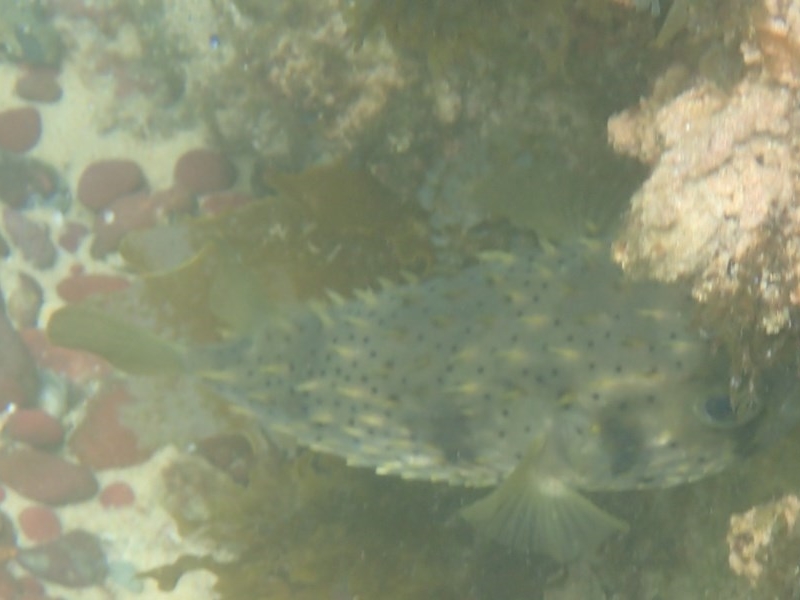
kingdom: Animalia
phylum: Chordata
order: Tetraodontiformes
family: Diodontidae
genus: Dicotylichthys
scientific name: Dicotylichthys punctulatus
